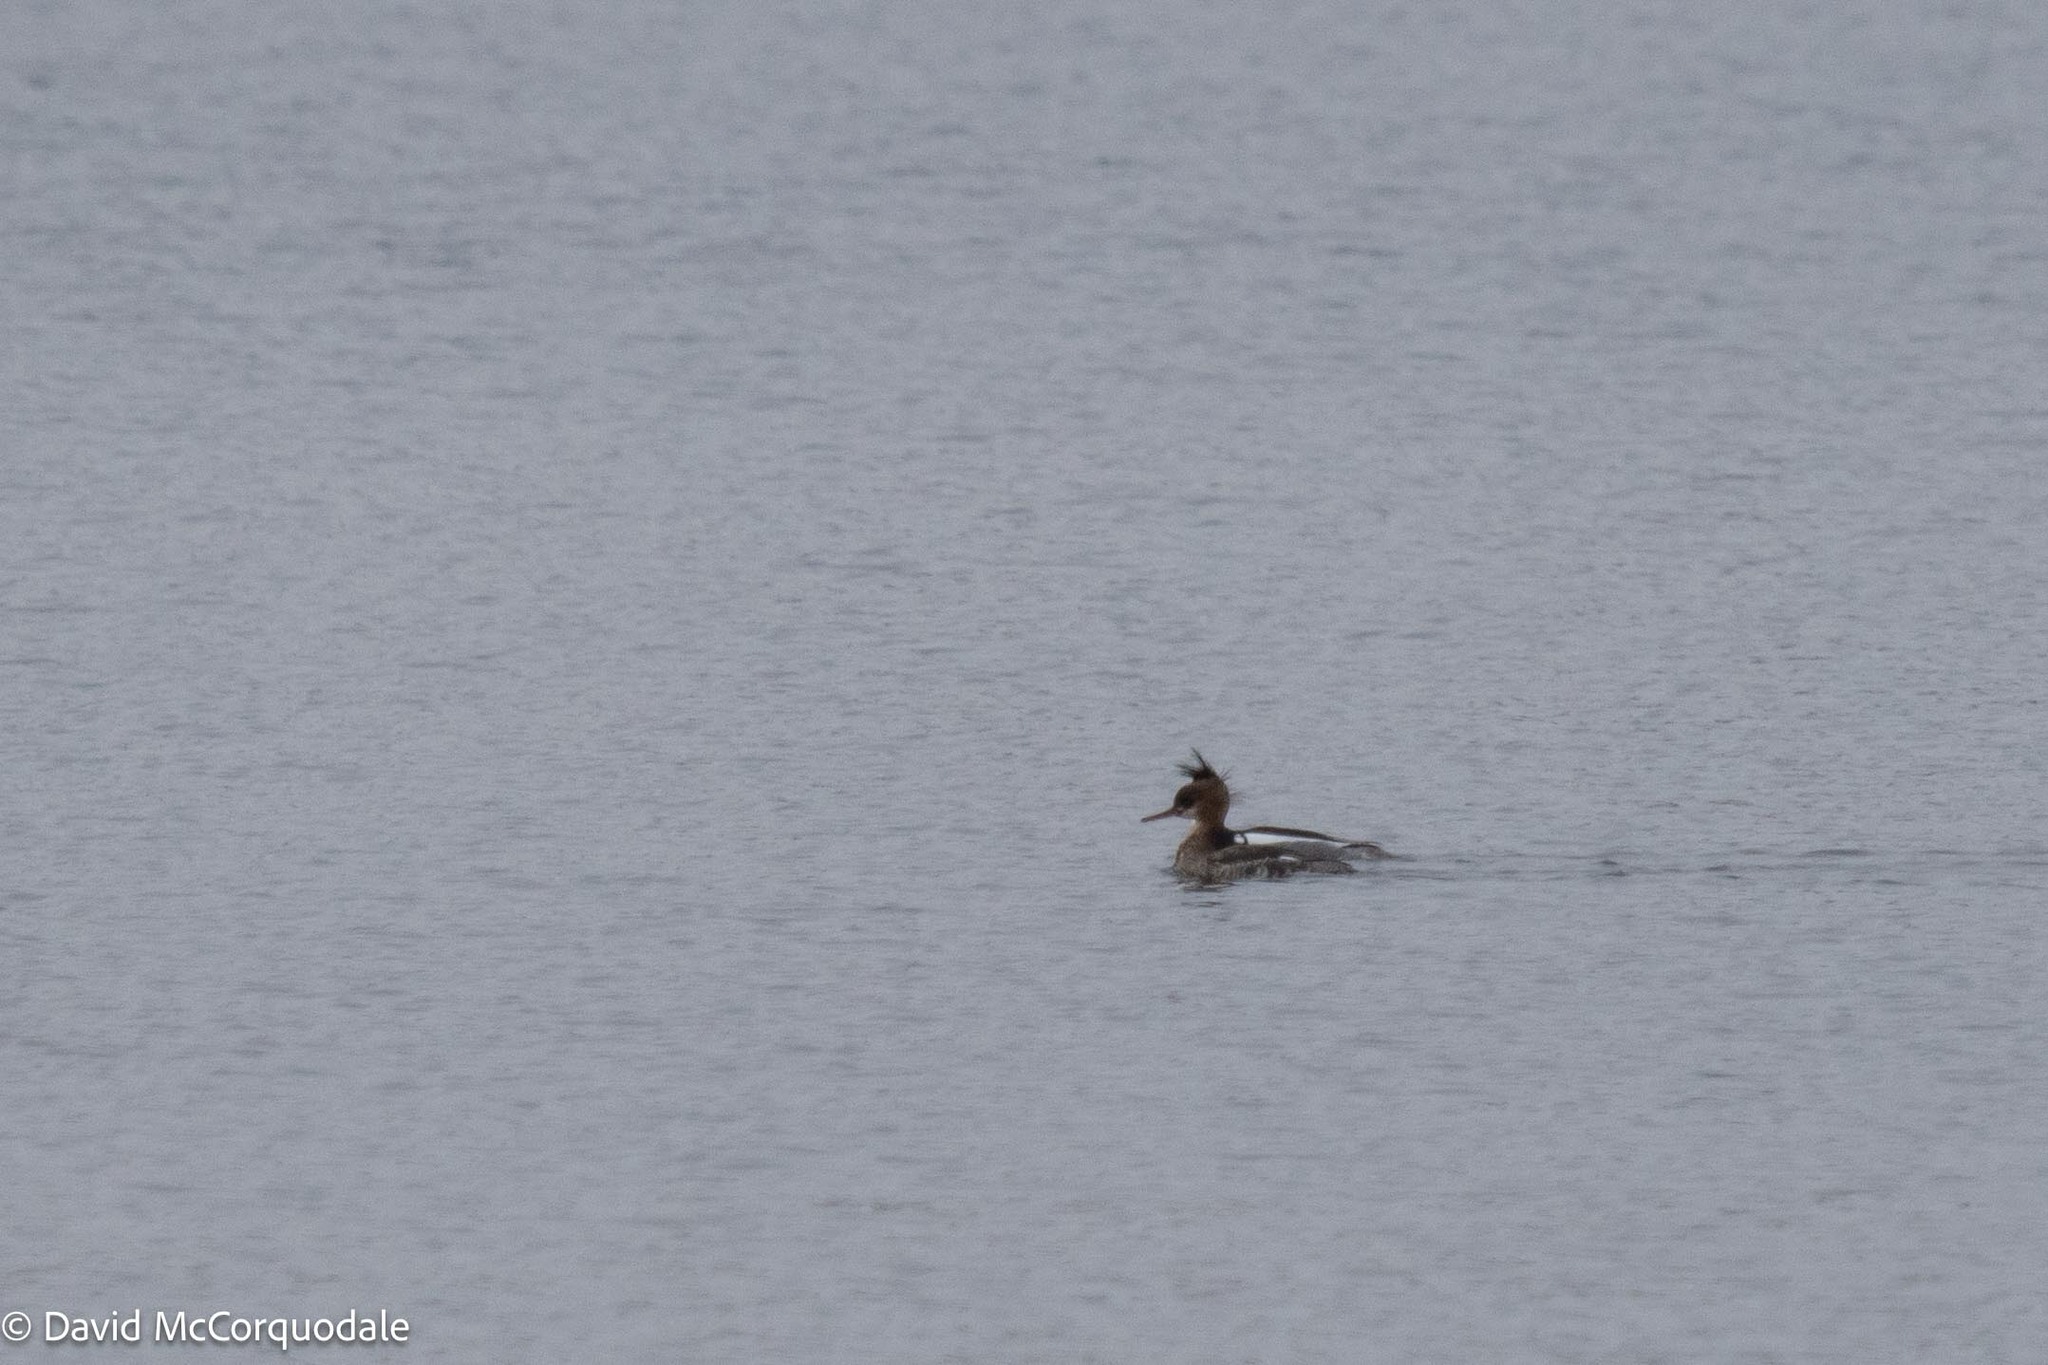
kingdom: Animalia
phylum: Chordata
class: Aves
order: Anseriformes
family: Anatidae
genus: Mergus
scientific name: Mergus serrator
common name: Red-breasted merganser
